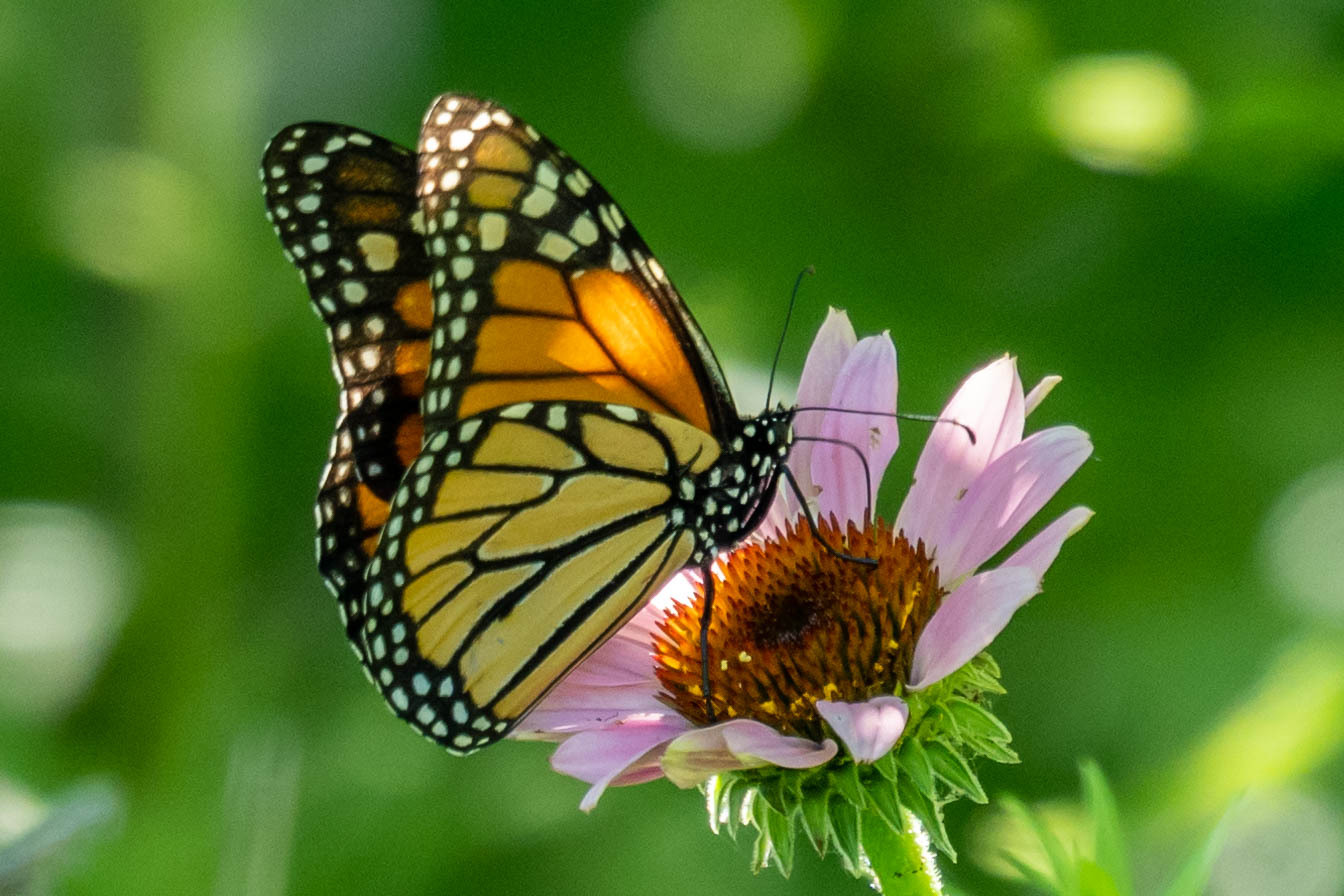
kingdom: Animalia
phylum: Arthropoda
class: Insecta
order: Lepidoptera
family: Nymphalidae
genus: Danaus
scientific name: Danaus plexippus
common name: Monarch
